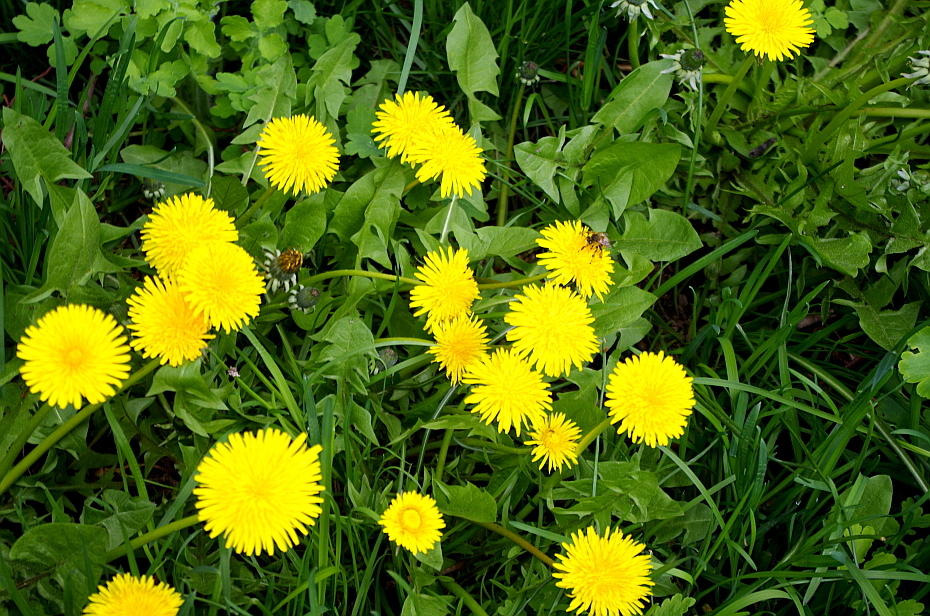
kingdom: Plantae
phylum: Tracheophyta
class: Magnoliopsida
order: Asterales
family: Asteraceae
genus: Taraxacum
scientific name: Taraxacum officinale
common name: Common dandelion
